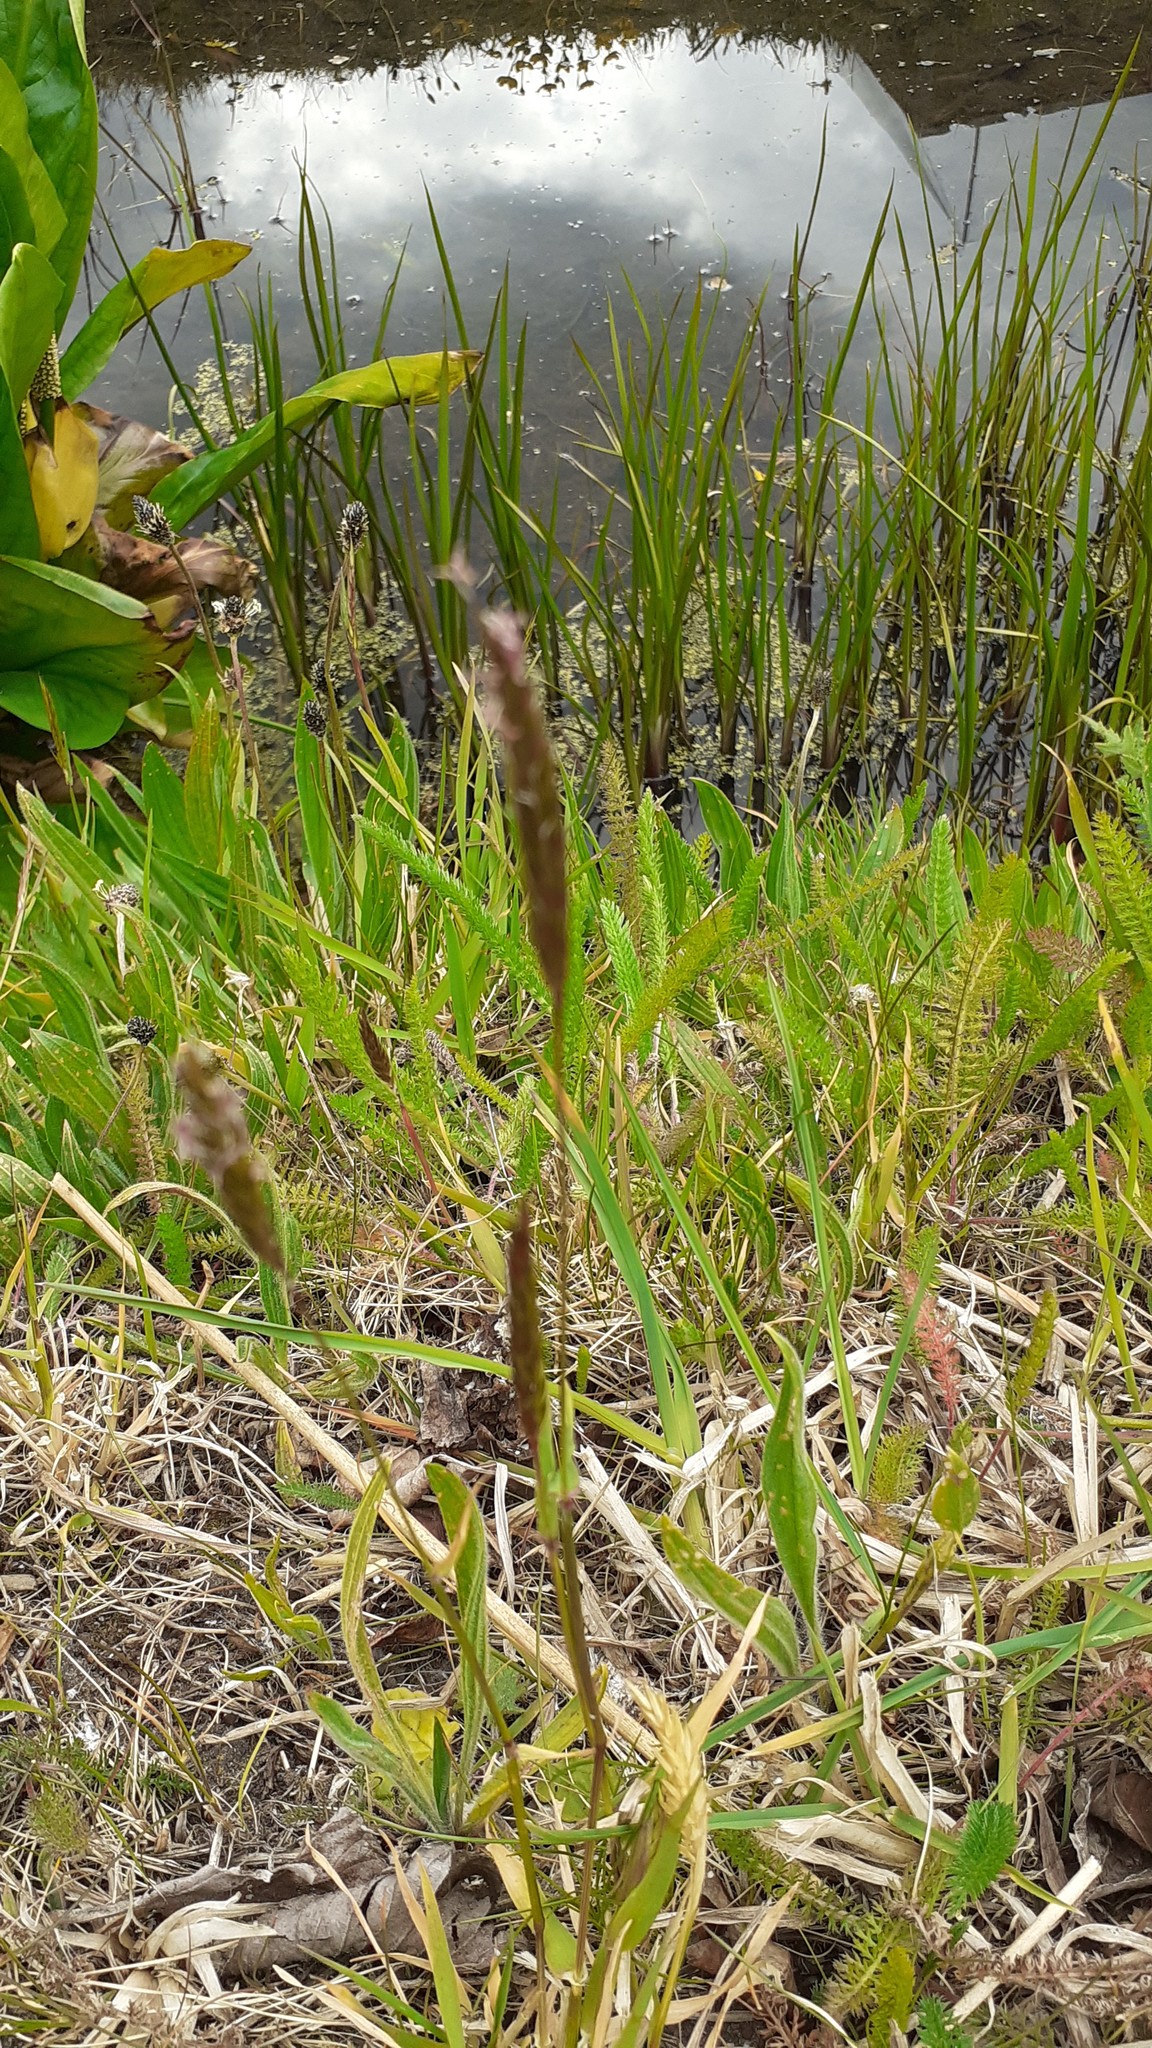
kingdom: Plantae
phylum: Tracheophyta
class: Liliopsida
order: Poales
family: Poaceae
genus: Anthoxanthum
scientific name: Anthoxanthum odoratum
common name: Sweet vernalgrass
